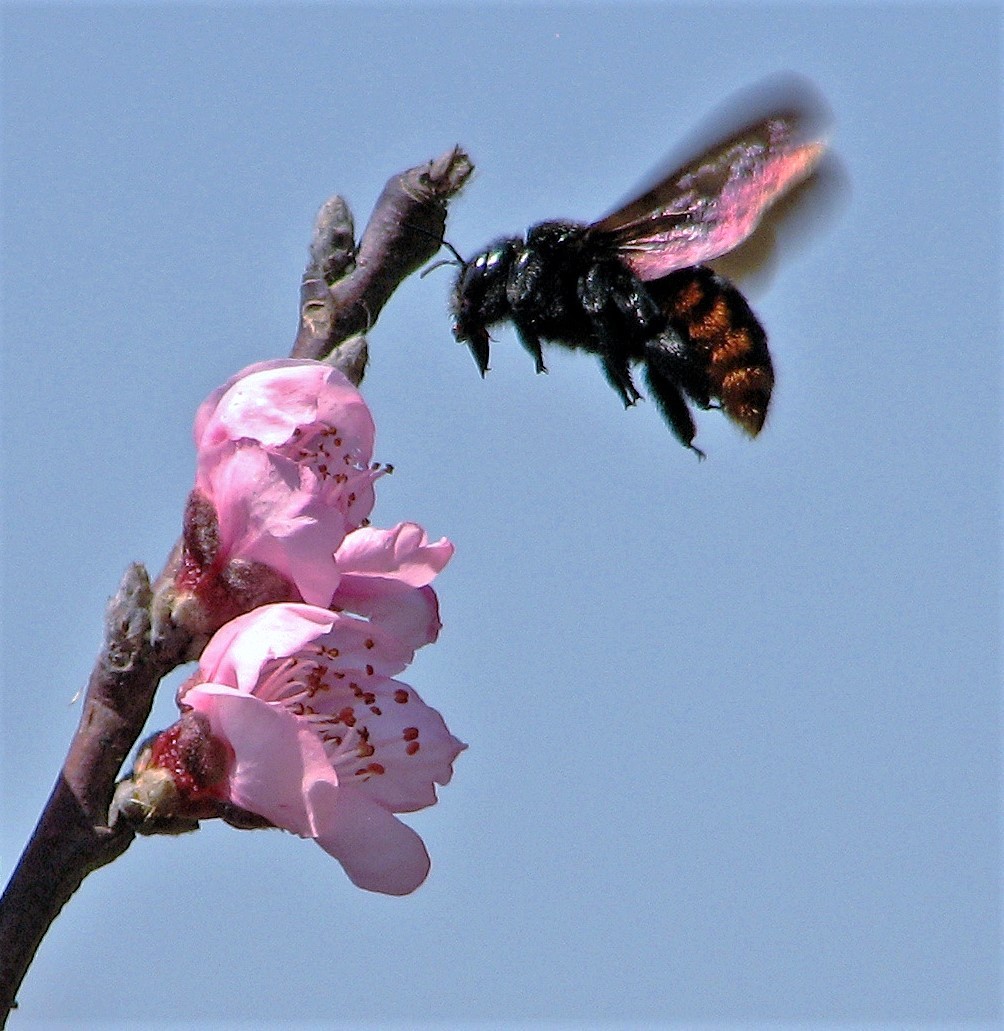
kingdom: Animalia
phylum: Arthropoda
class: Insecta
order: Hymenoptera
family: Apidae
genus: Xylocopa
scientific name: Xylocopa augusti
